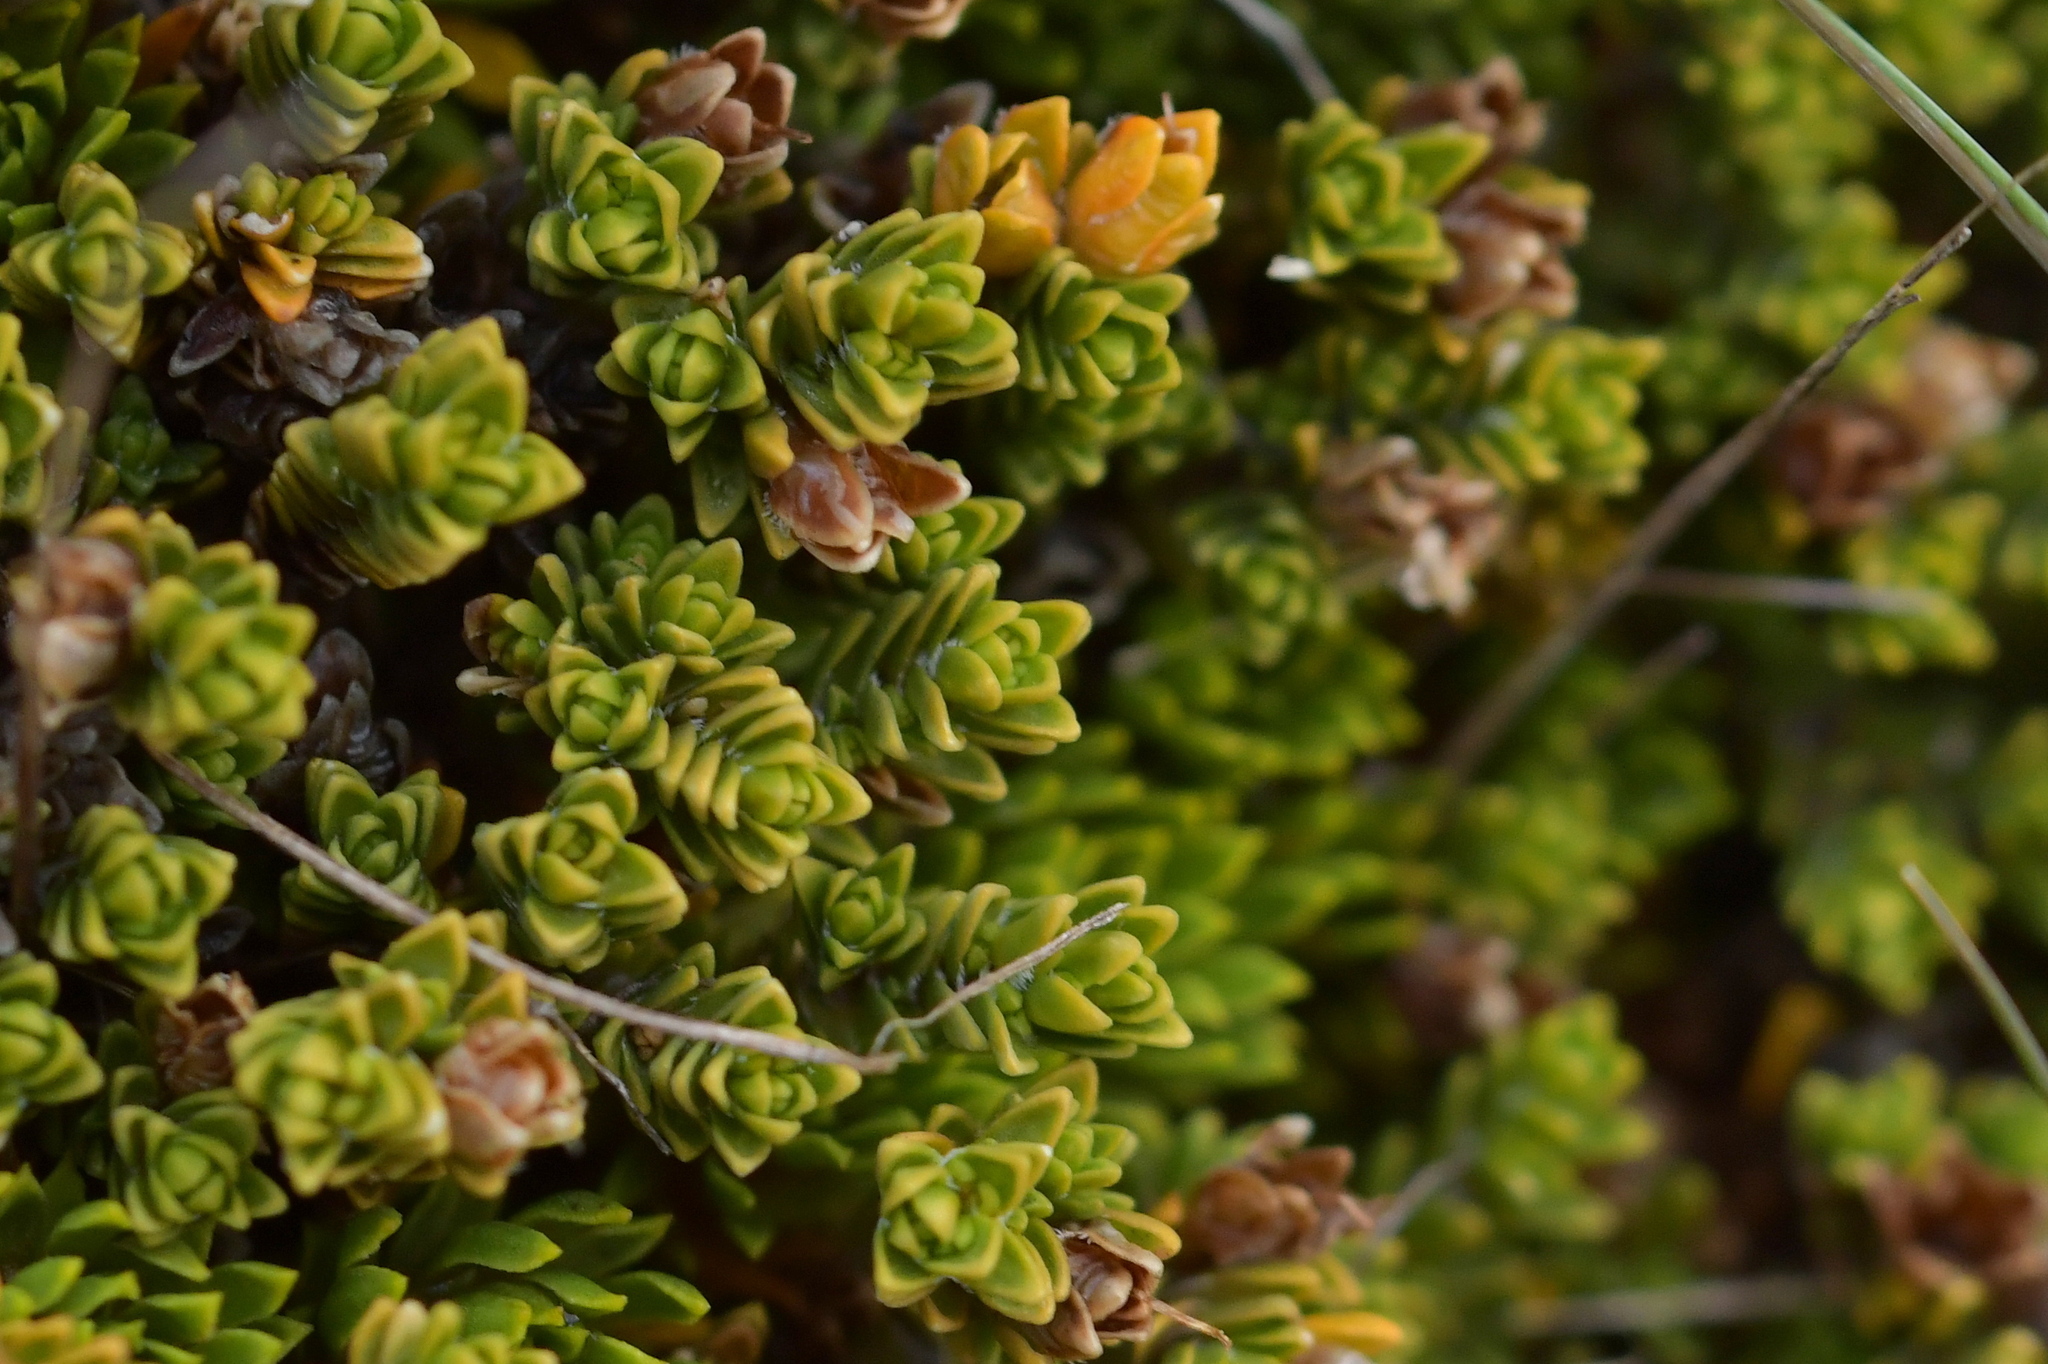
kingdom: Plantae
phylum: Tracheophyta
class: Magnoliopsida
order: Lamiales
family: Plantaginaceae
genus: Veronica
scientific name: Veronica densifolia
